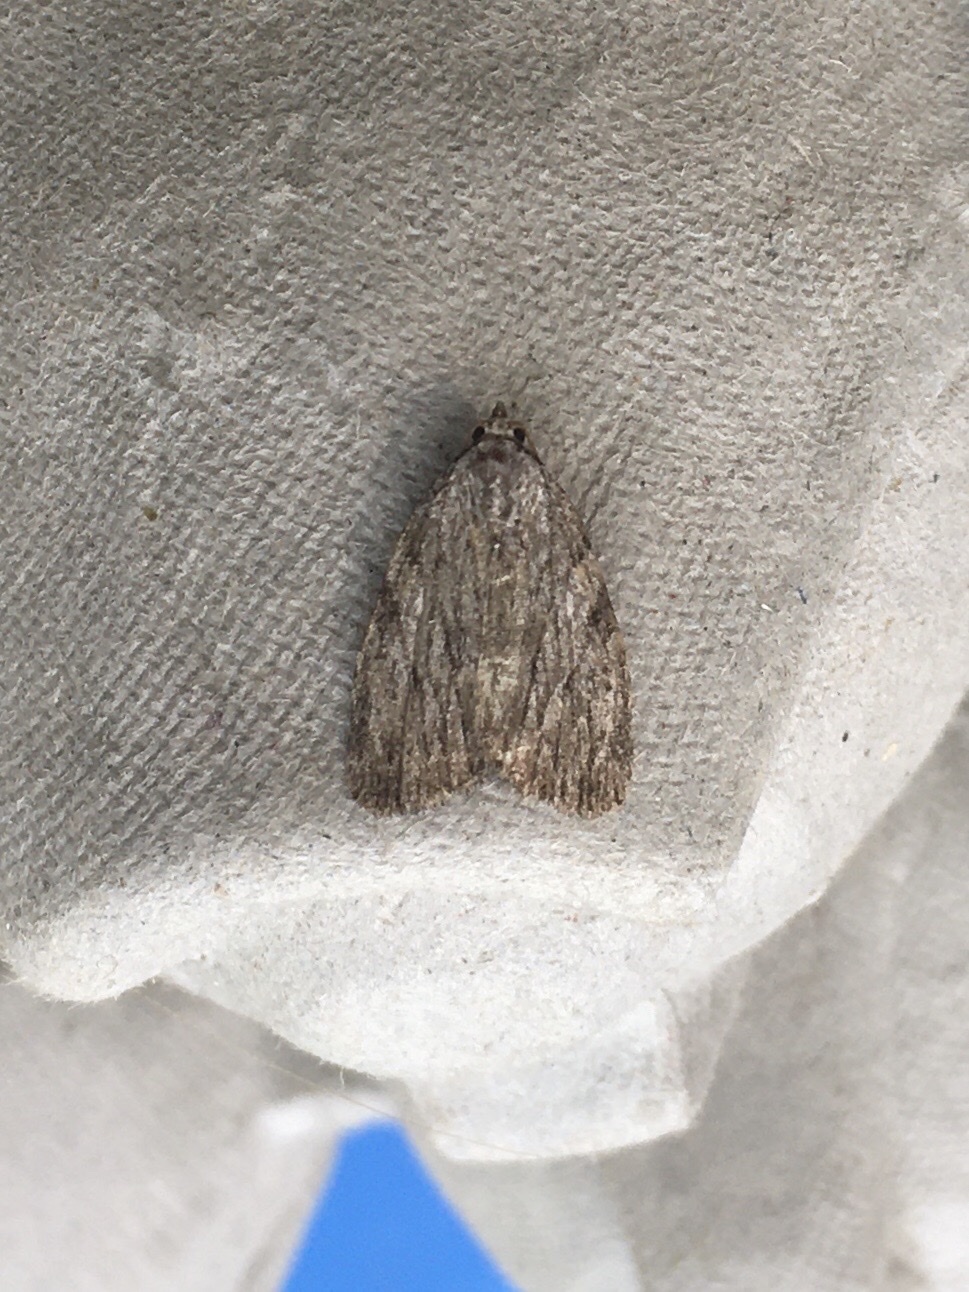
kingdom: Animalia
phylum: Arthropoda
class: Insecta
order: Lepidoptera
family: Noctuidae
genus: Balsa
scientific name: Balsa tristrigella
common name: Three-lined balsa moth
